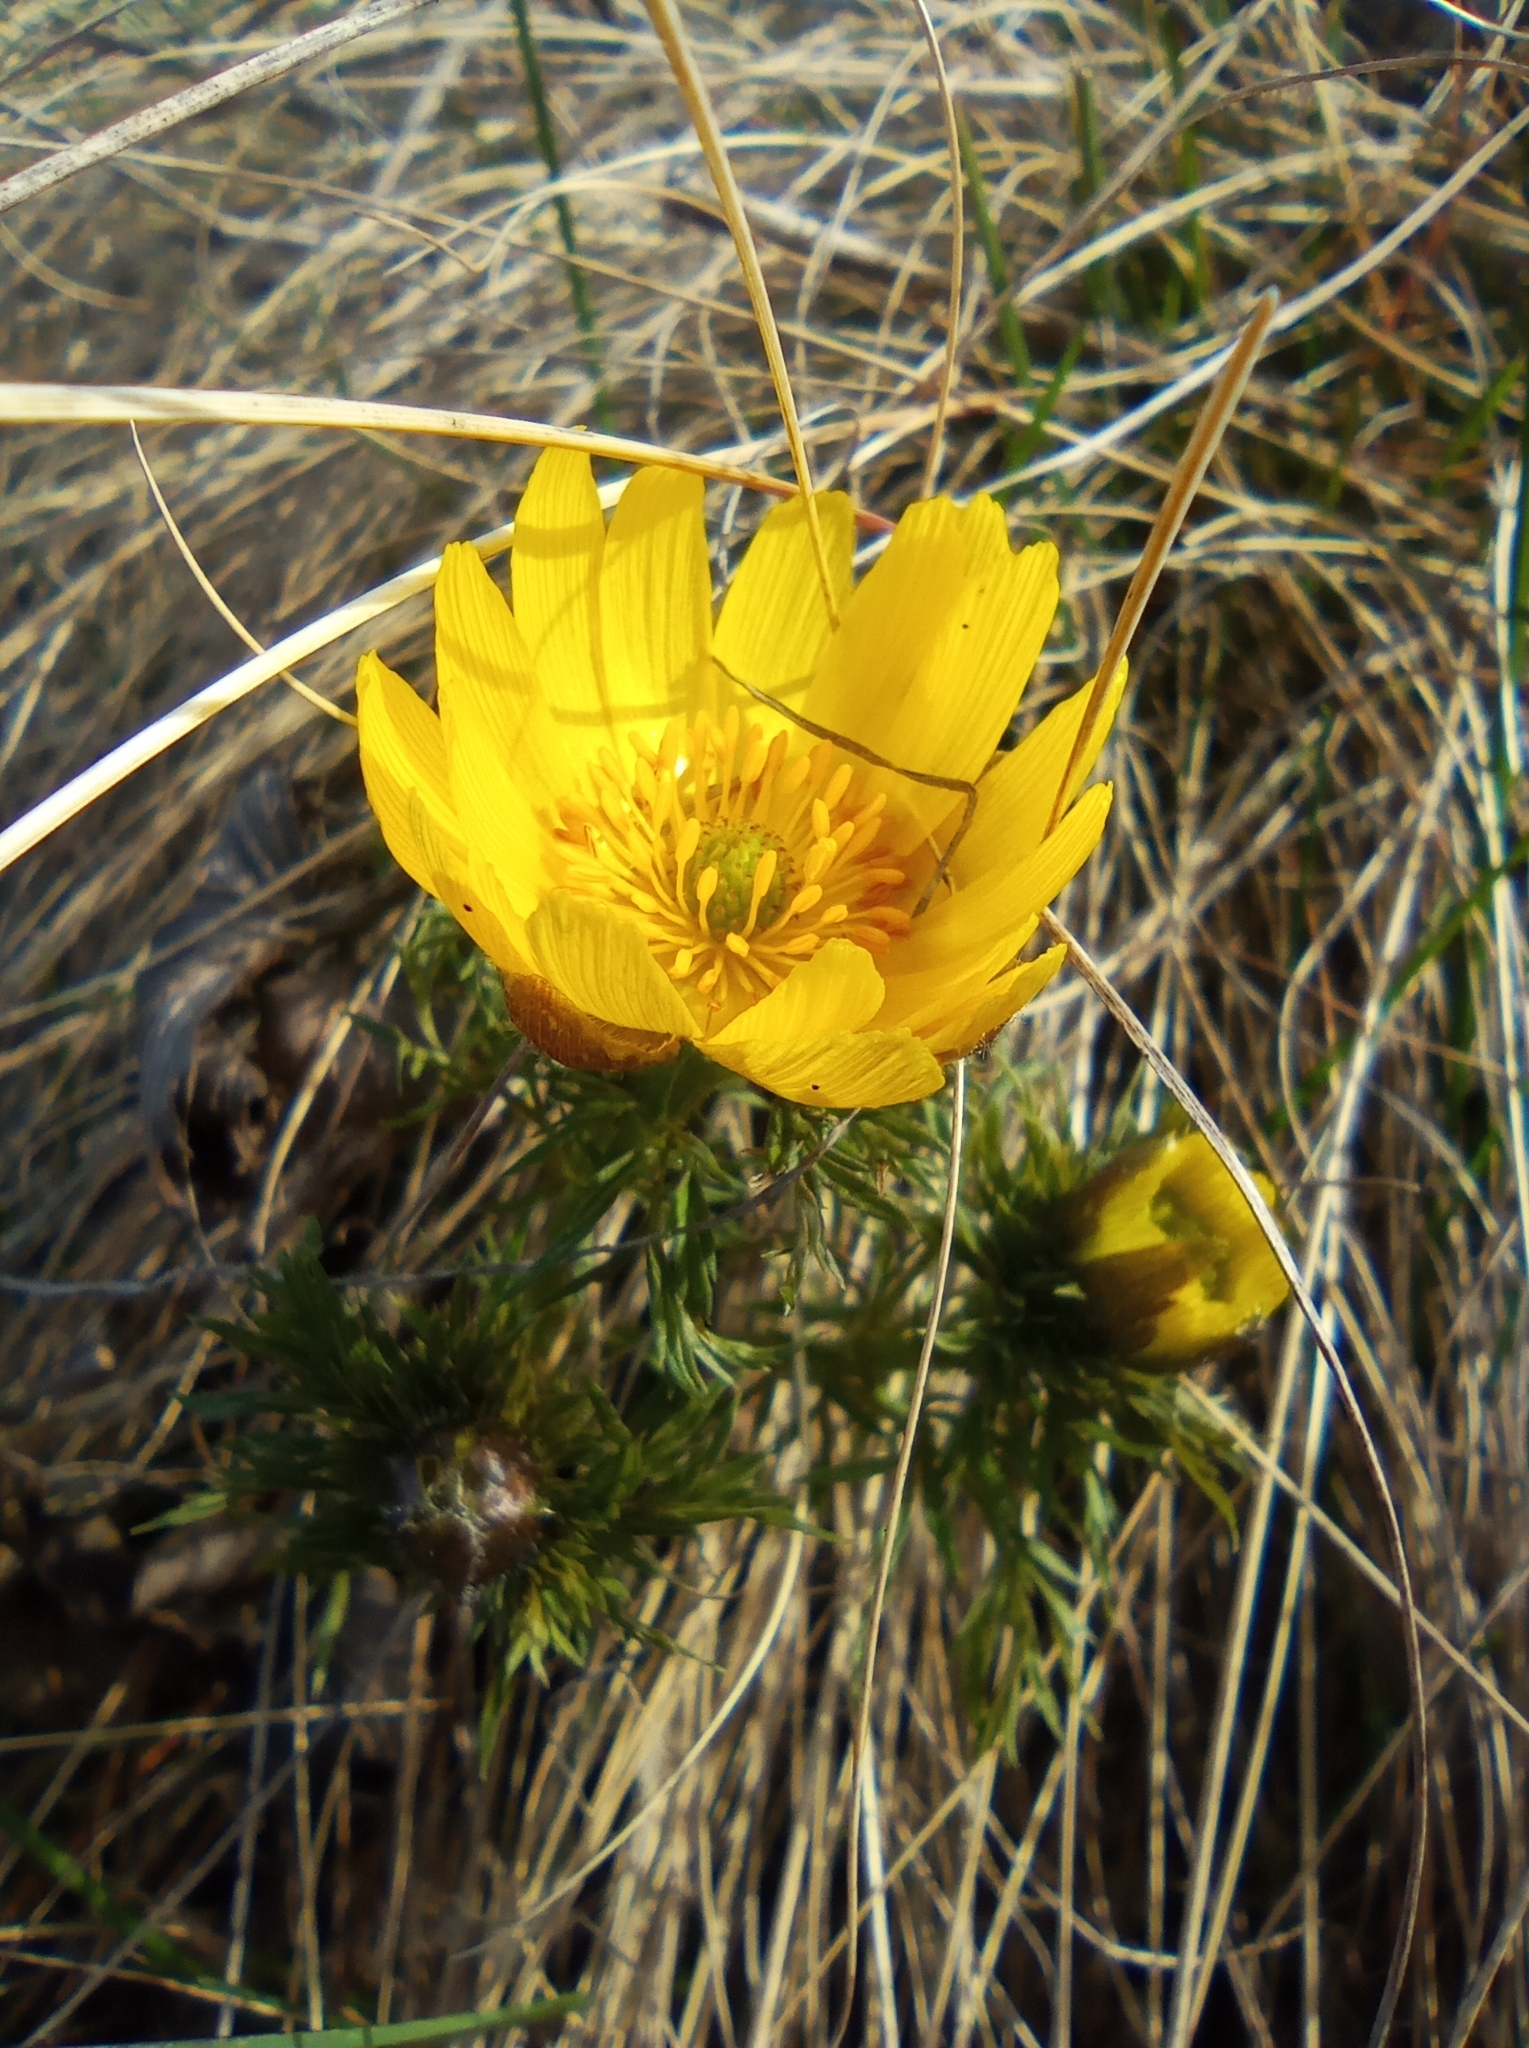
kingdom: Plantae
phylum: Tracheophyta
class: Magnoliopsida
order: Ranunculales
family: Ranunculaceae
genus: Adonis
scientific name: Adonis volgensis
